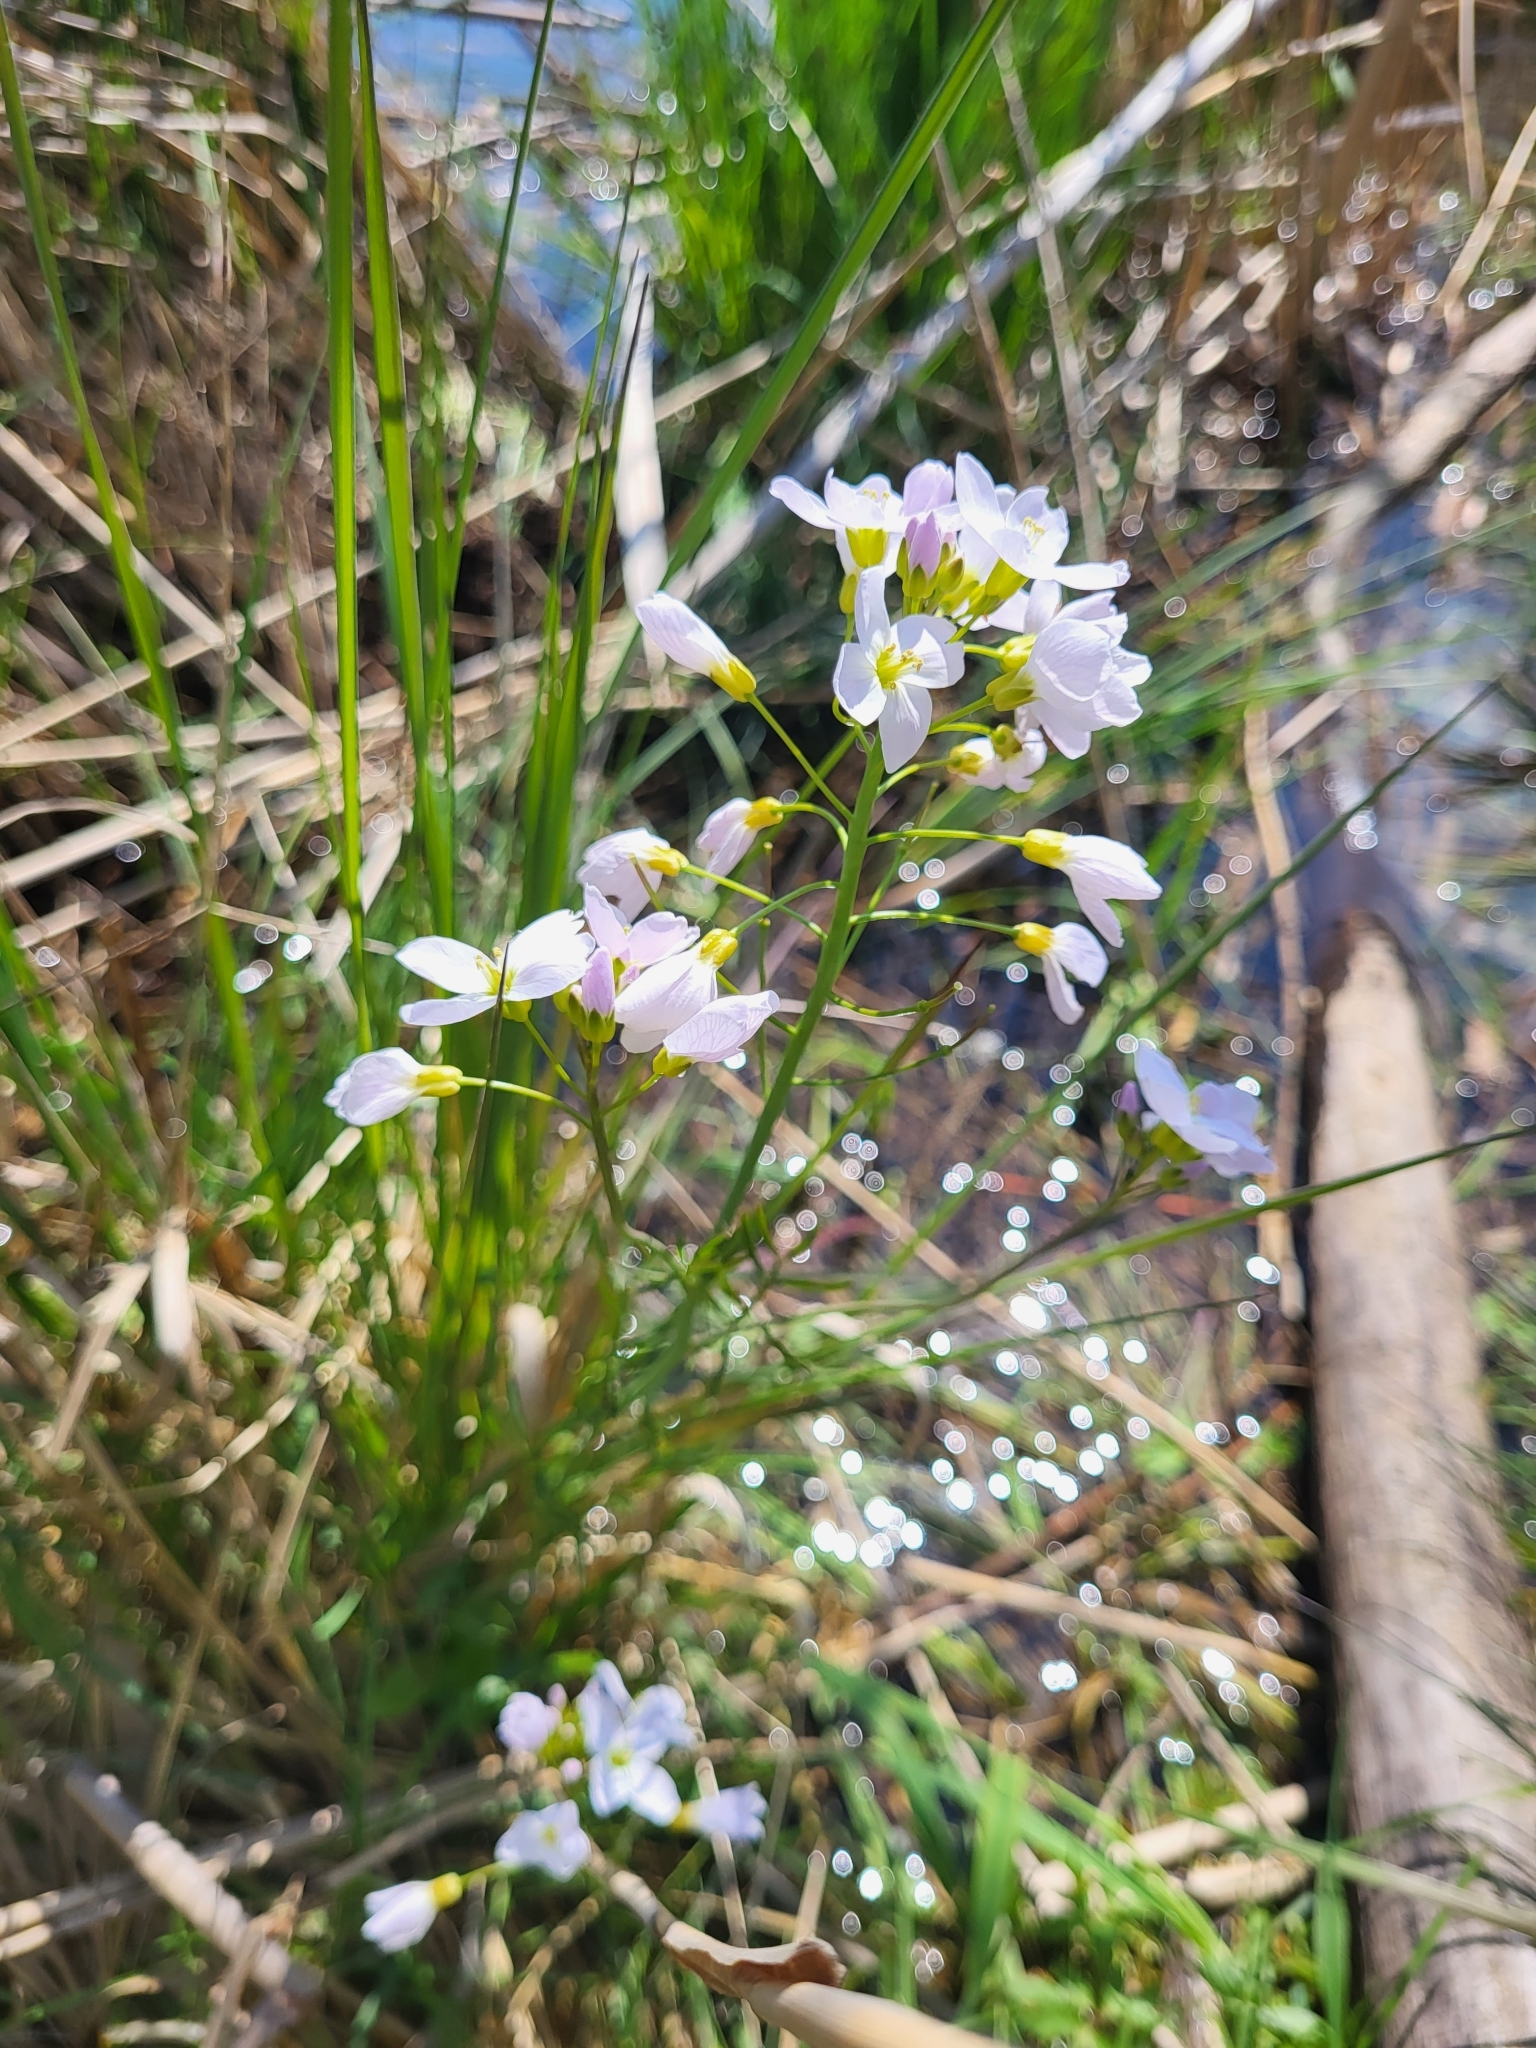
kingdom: Plantae
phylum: Tracheophyta
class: Magnoliopsida
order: Brassicales
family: Brassicaceae
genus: Cardamine
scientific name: Cardamine pratensis
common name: Cuckoo flower
